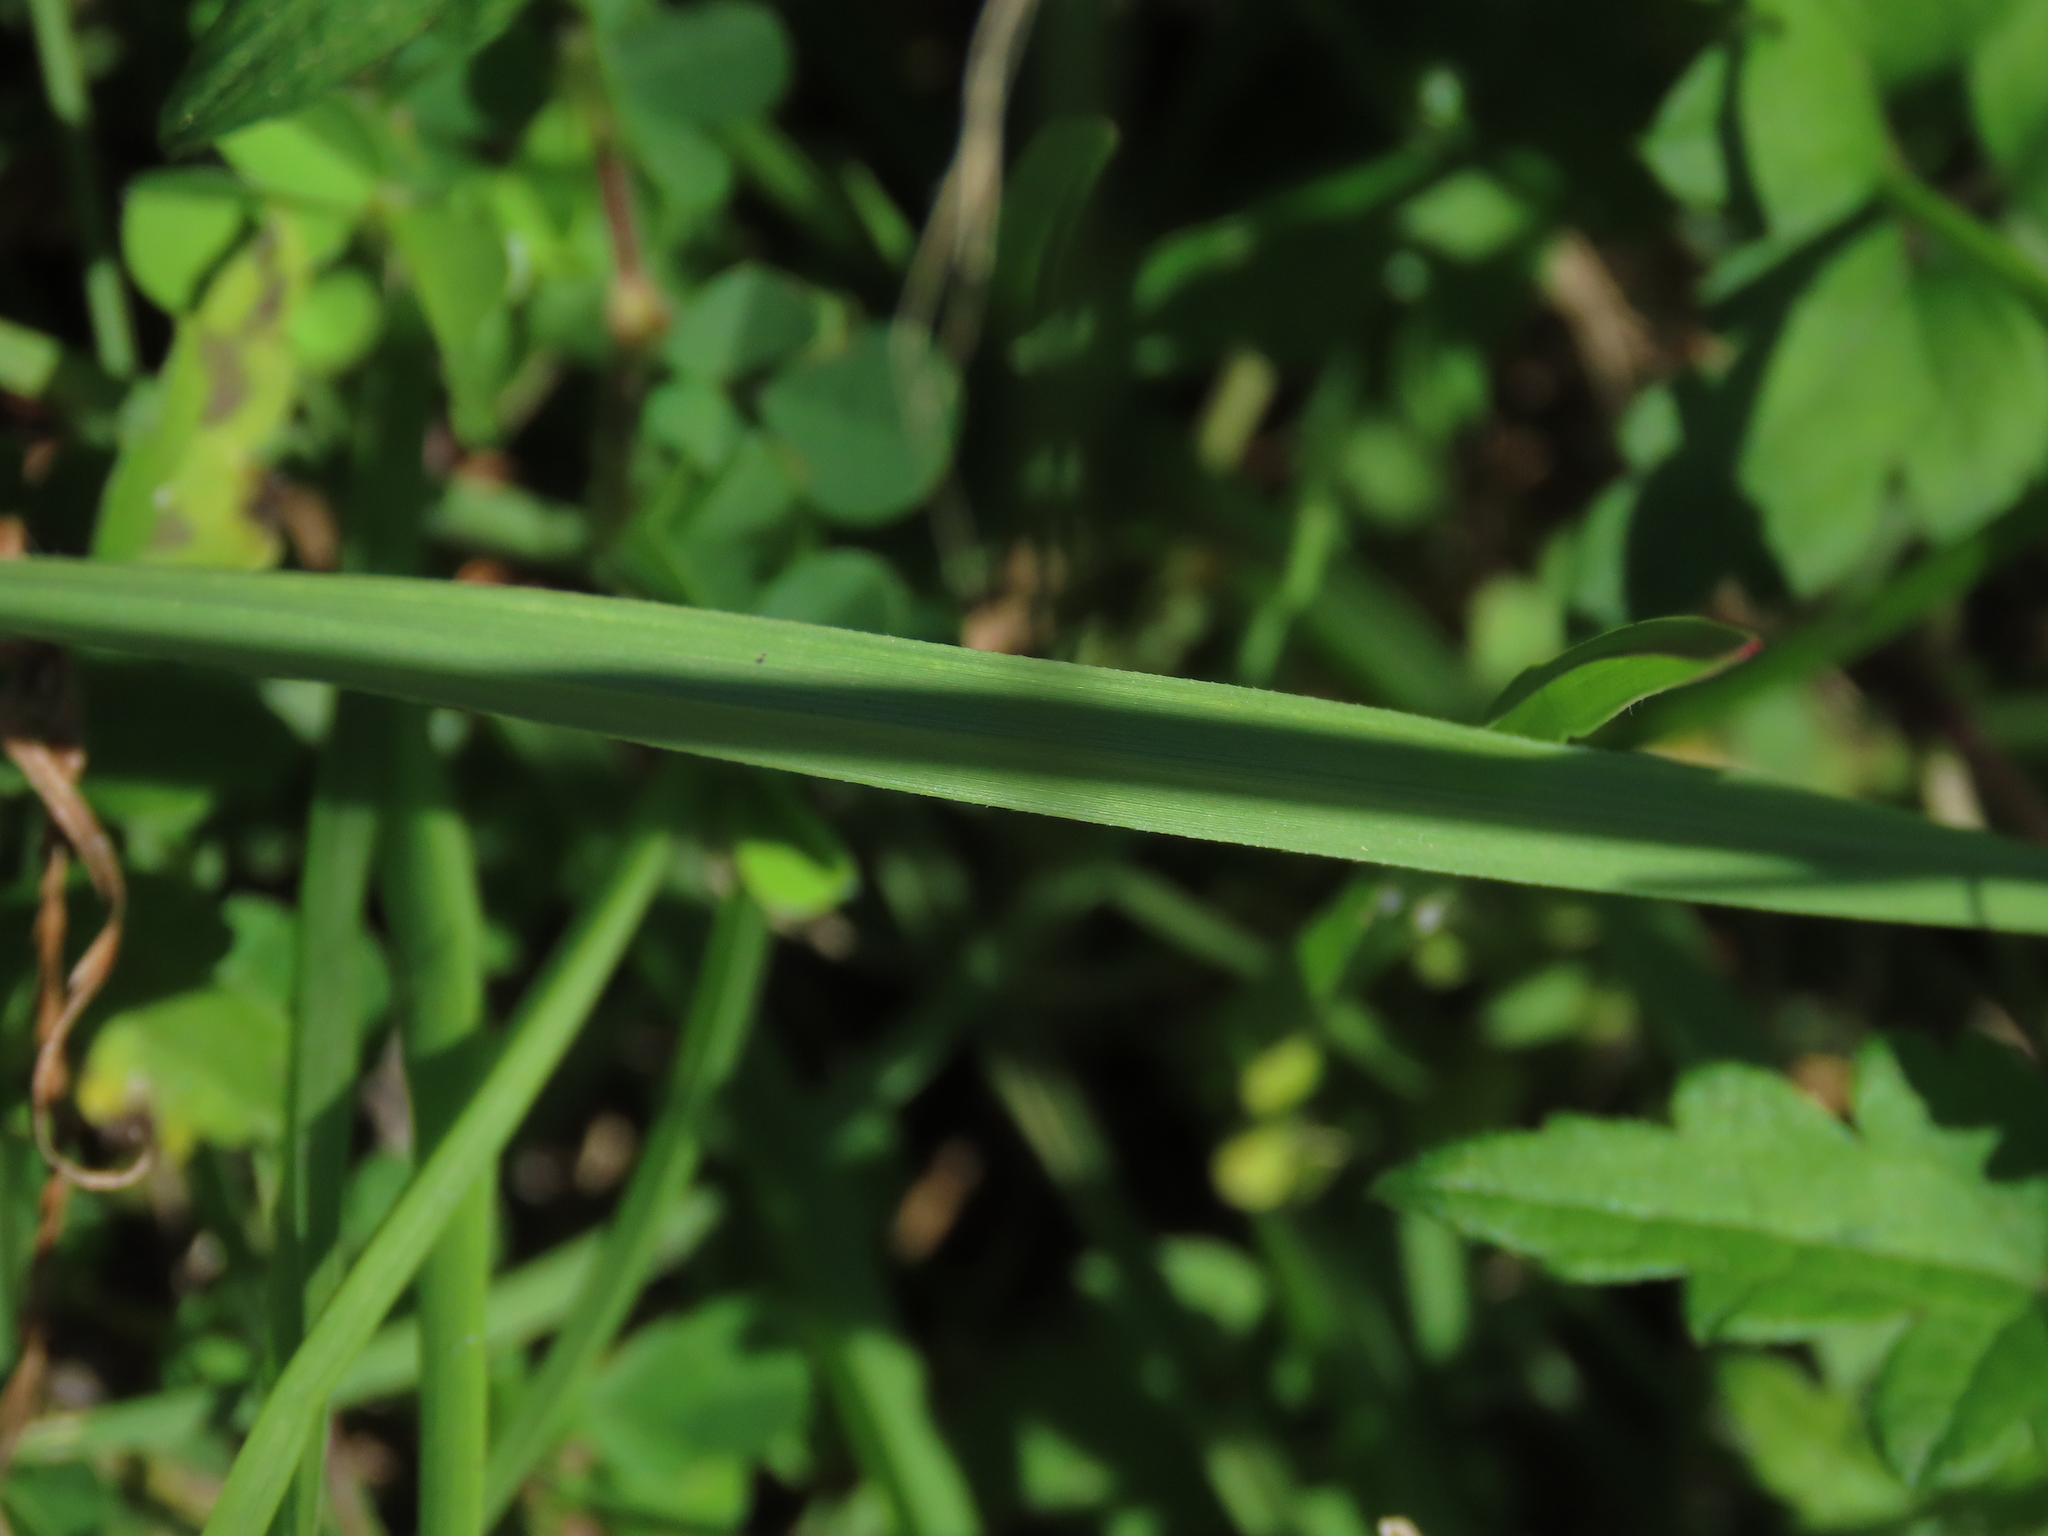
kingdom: Plantae
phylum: Tracheophyta
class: Liliopsida
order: Poales
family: Poaceae
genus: Eremochloa
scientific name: Eremochloa ophiuroides
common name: Centipede grass
